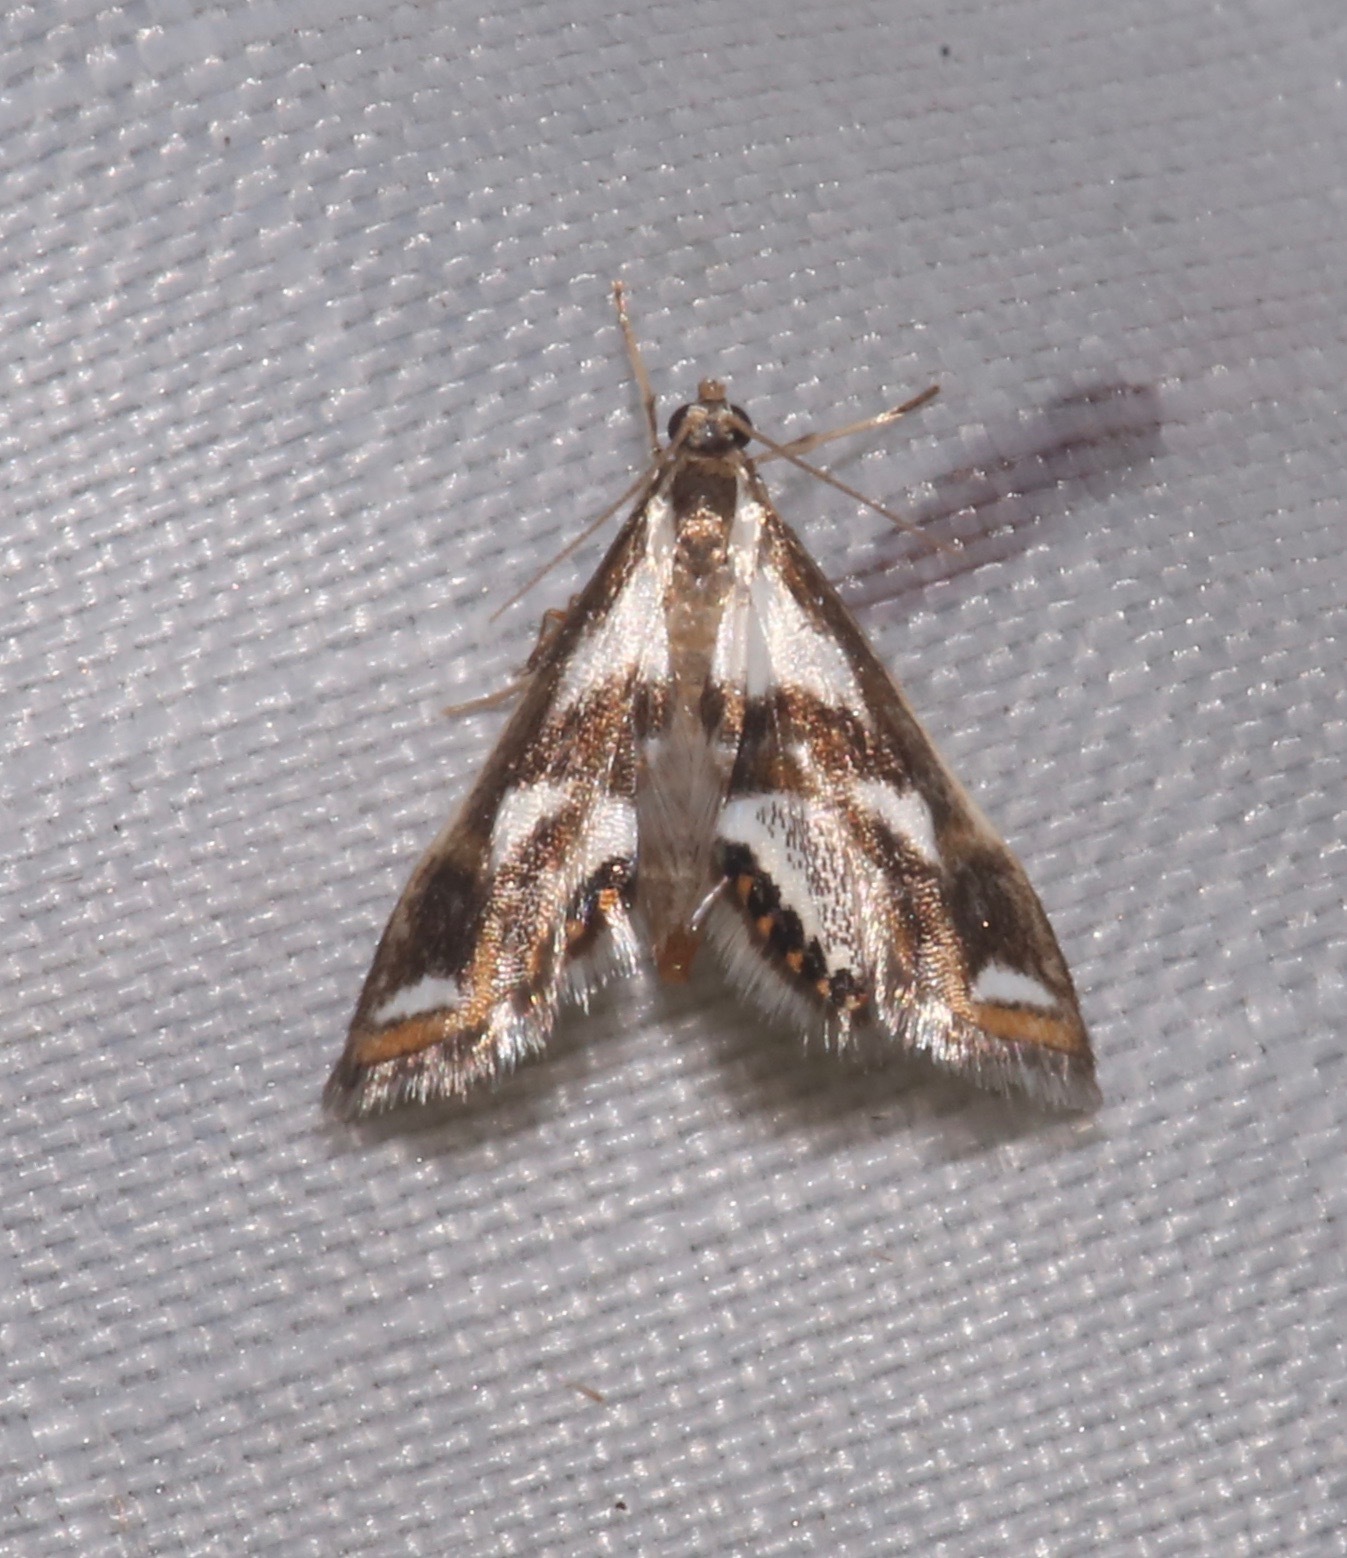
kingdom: Animalia
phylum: Arthropoda
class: Insecta
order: Lepidoptera
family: Crambidae
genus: Chrysendeton
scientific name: Chrysendeton imitabilis
